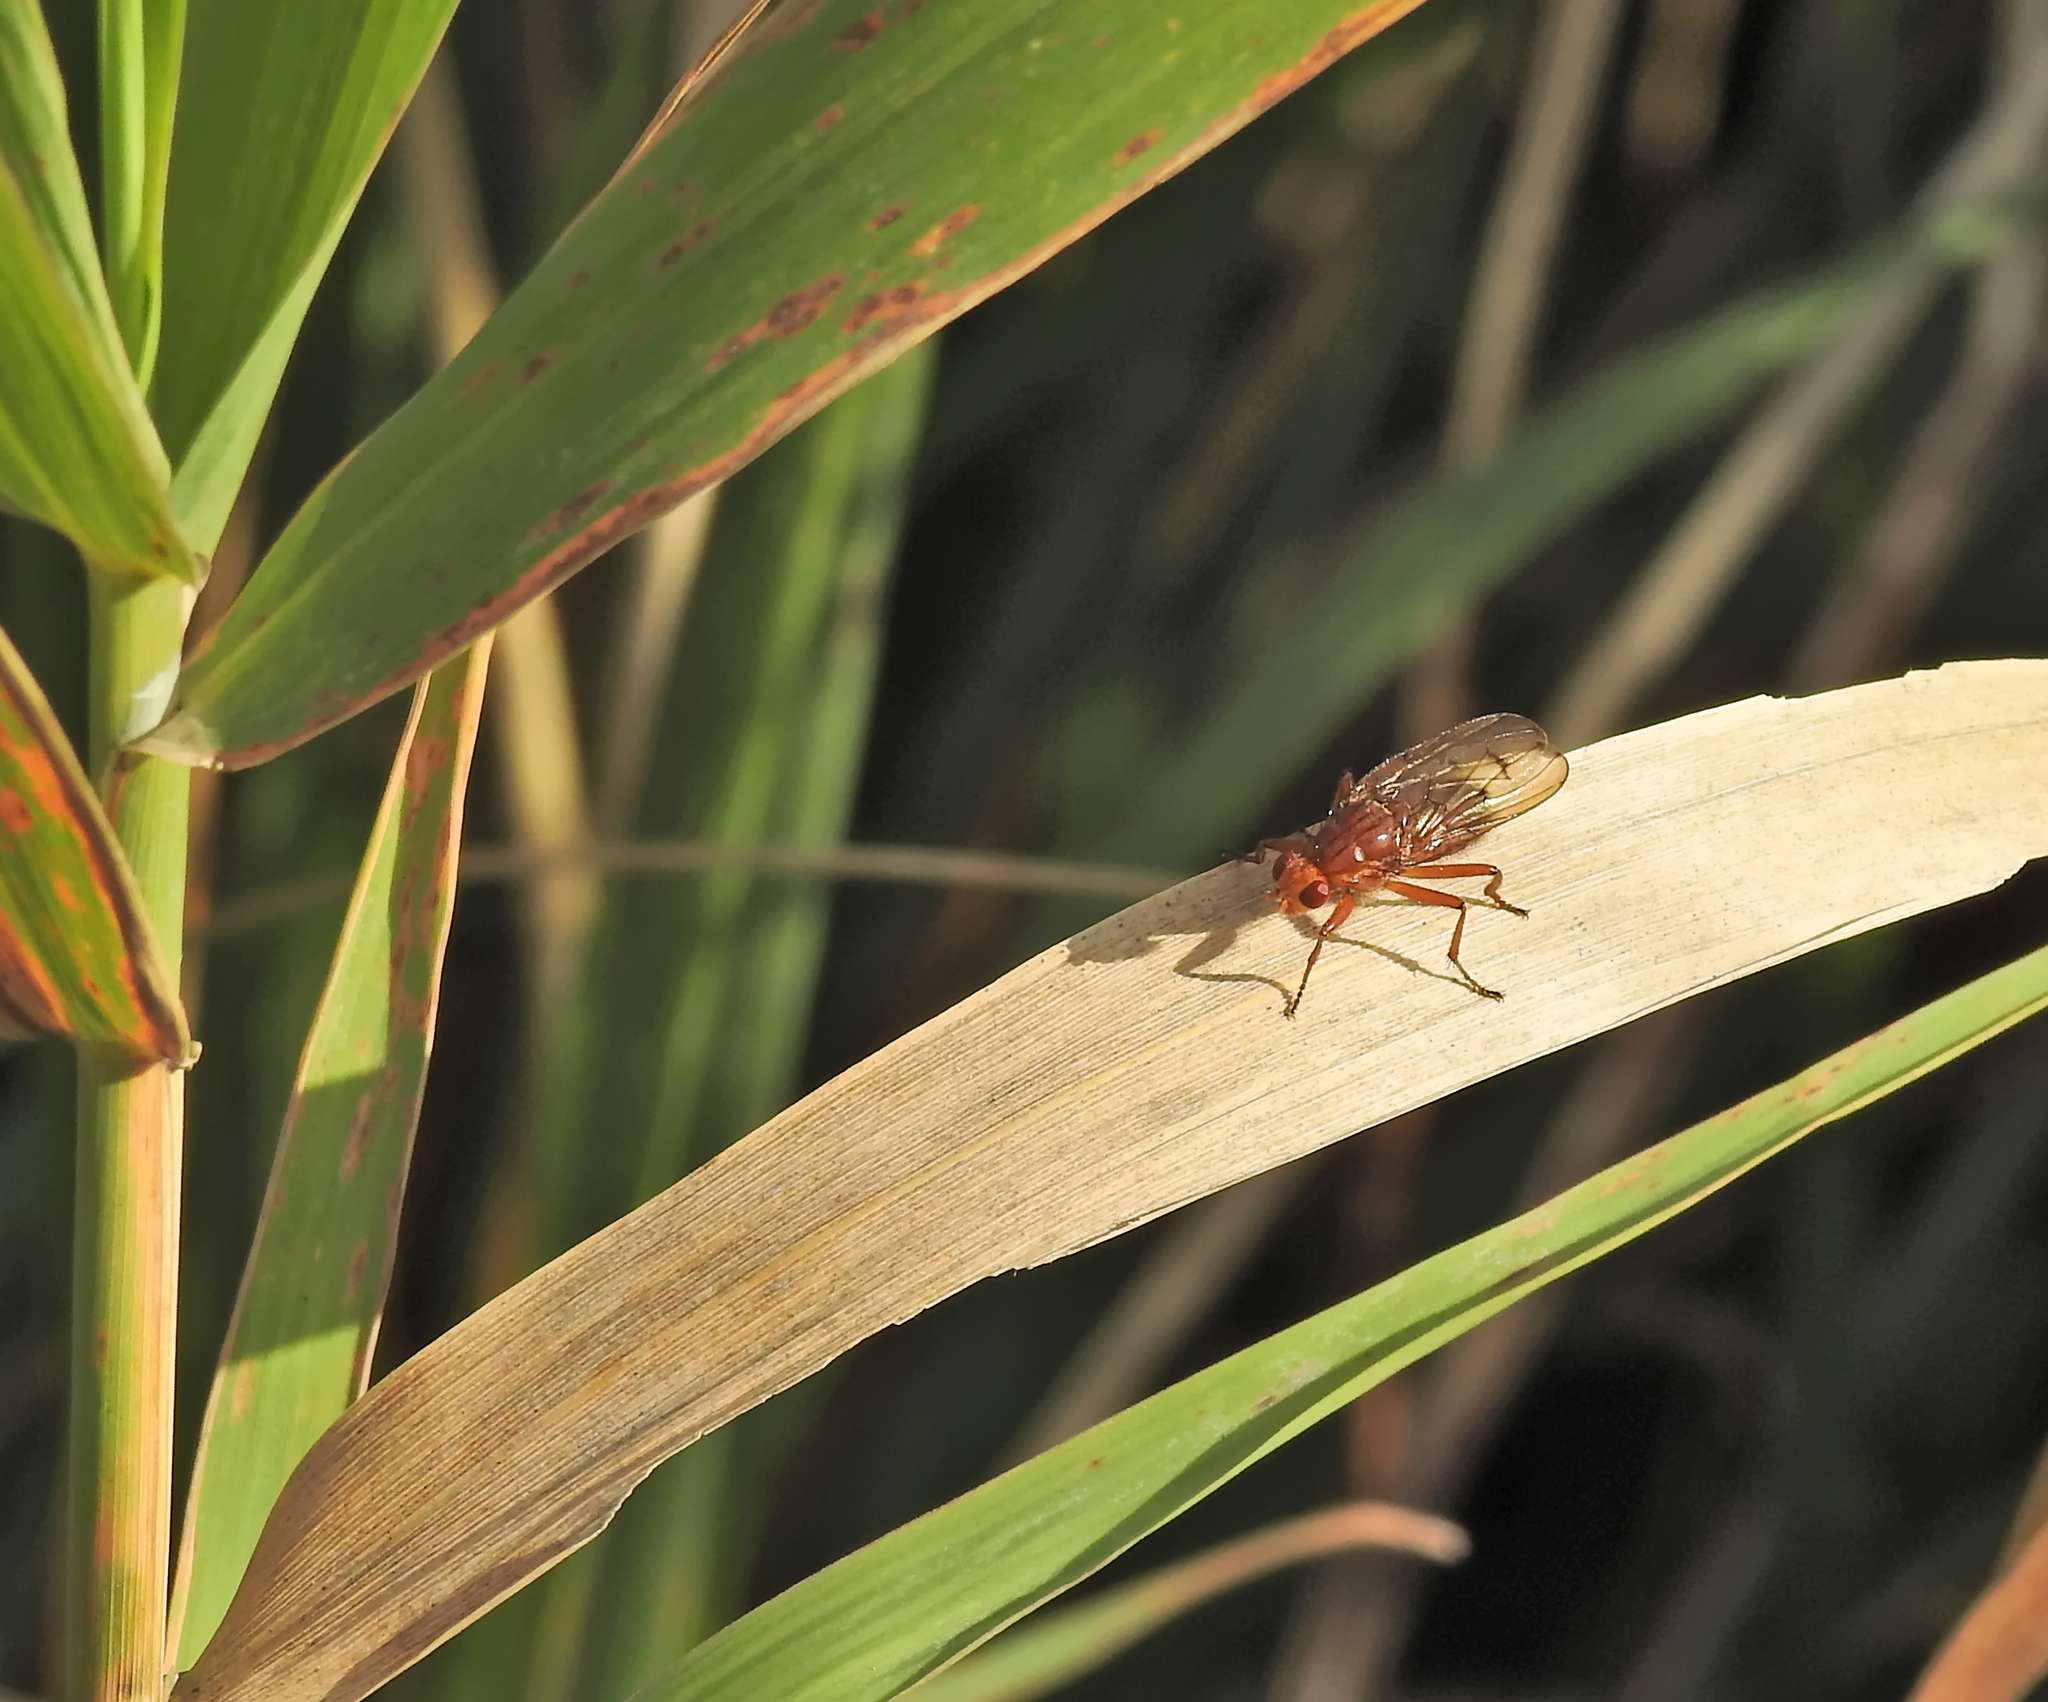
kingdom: Animalia
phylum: Arthropoda
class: Insecta
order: Diptera
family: Dryomyzidae
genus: Dryomyza
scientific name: Dryomyza anilis
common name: Marsh fly
